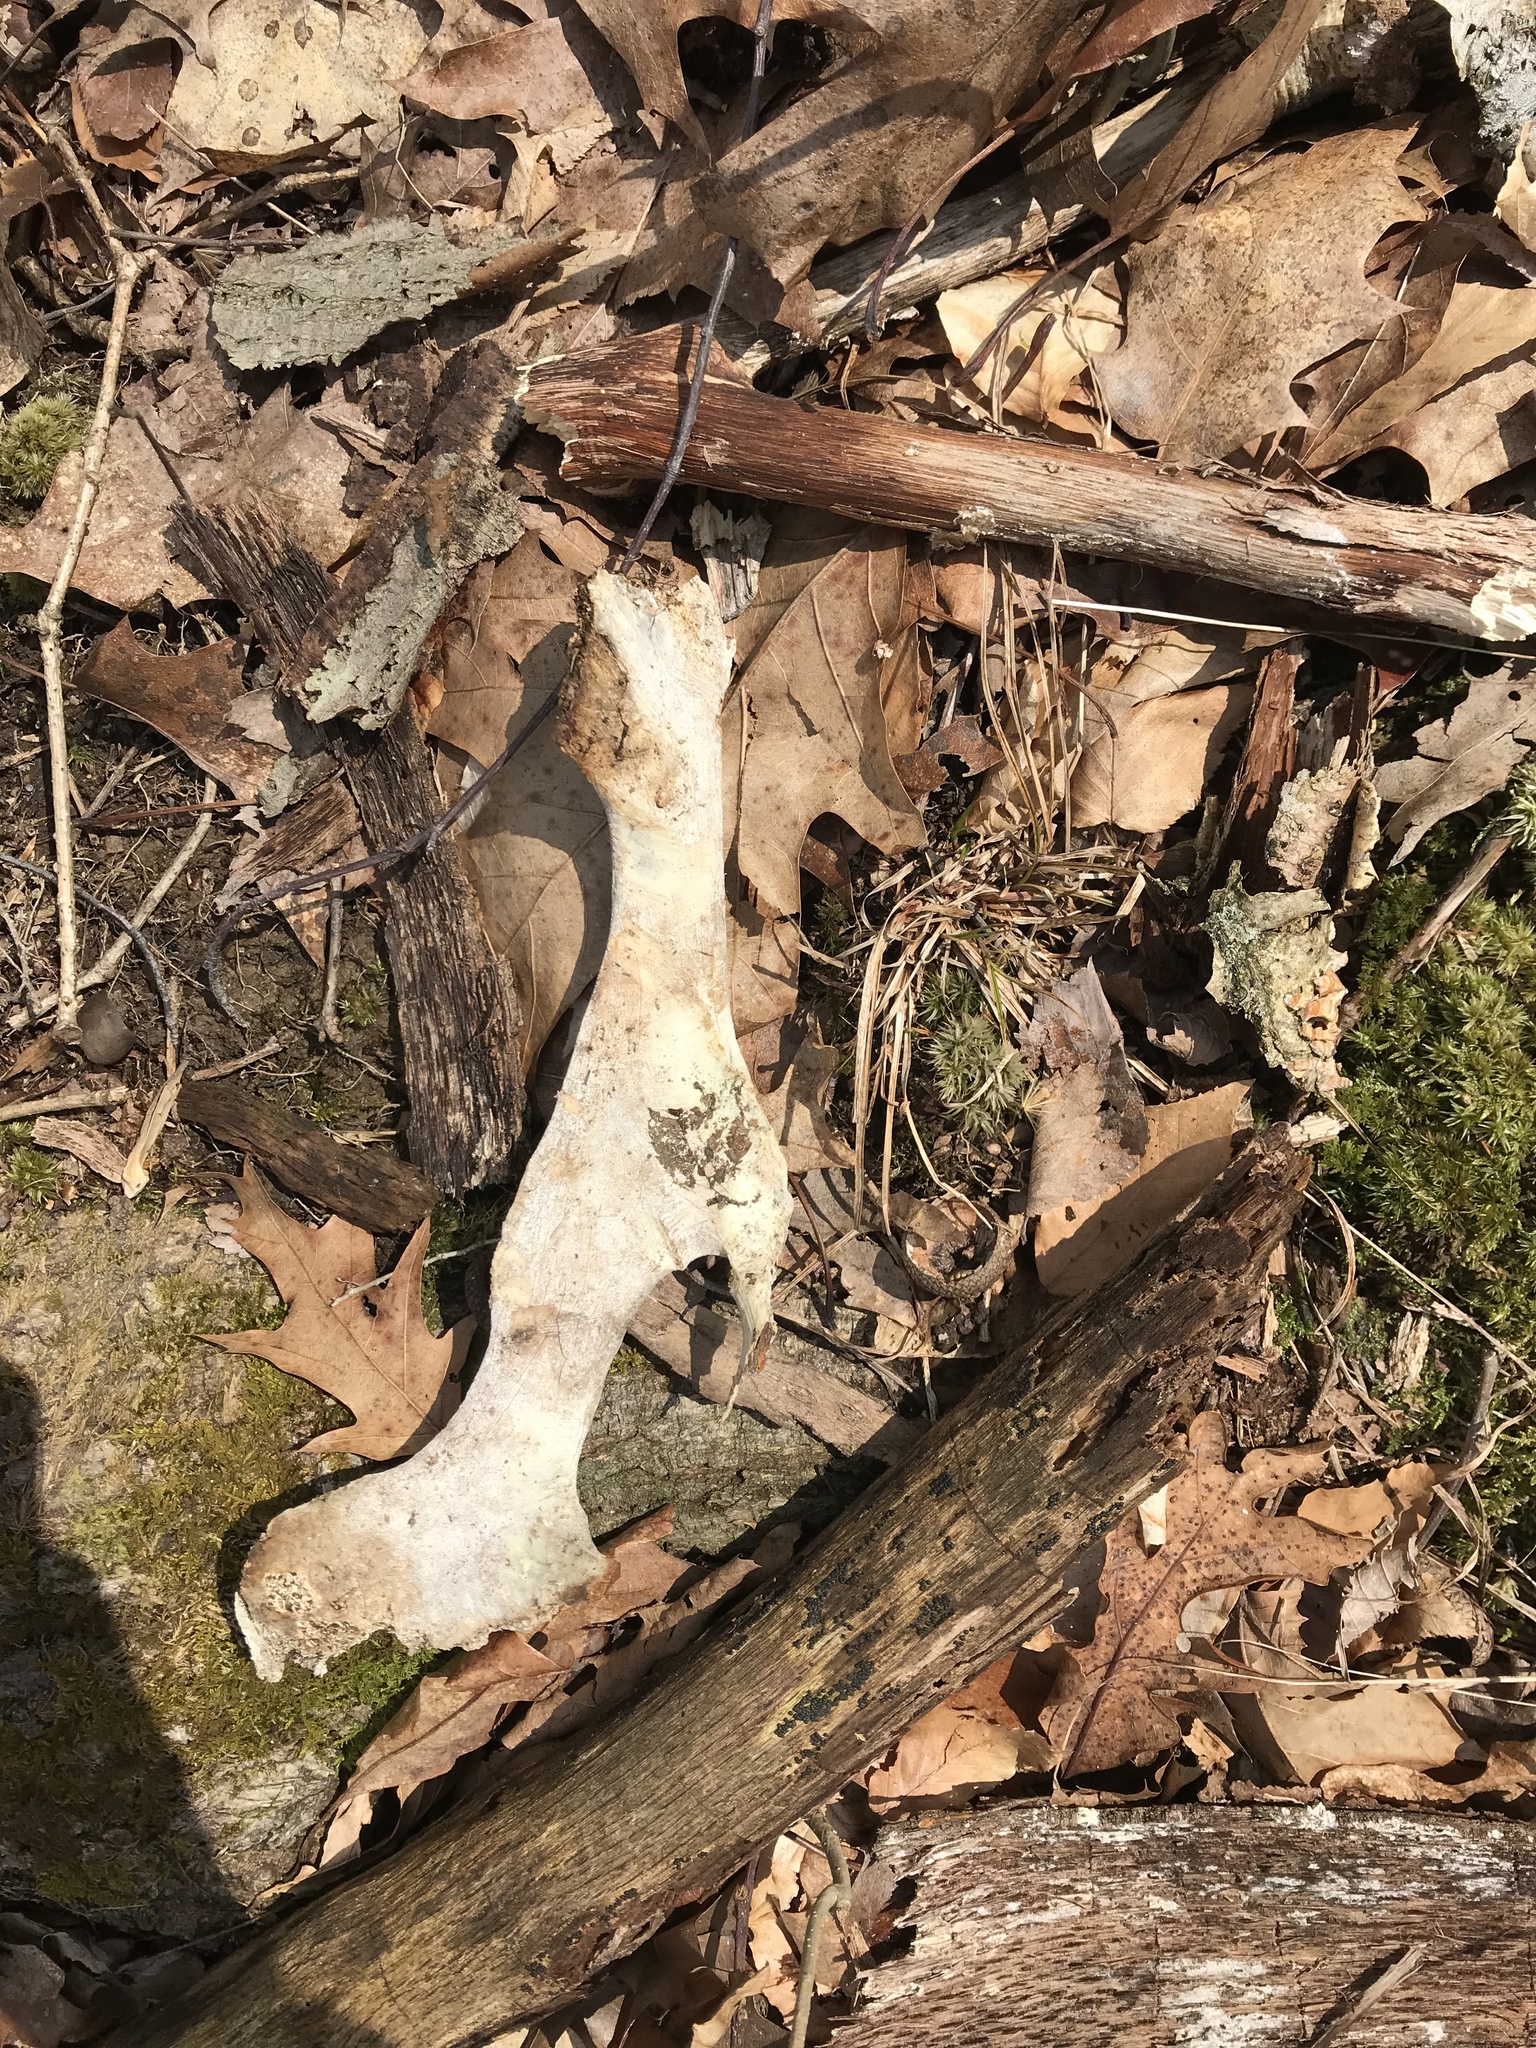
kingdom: Animalia
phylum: Chordata
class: Mammalia
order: Artiodactyla
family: Cervidae
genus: Odocoileus
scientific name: Odocoileus virginianus
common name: White-tailed deer
